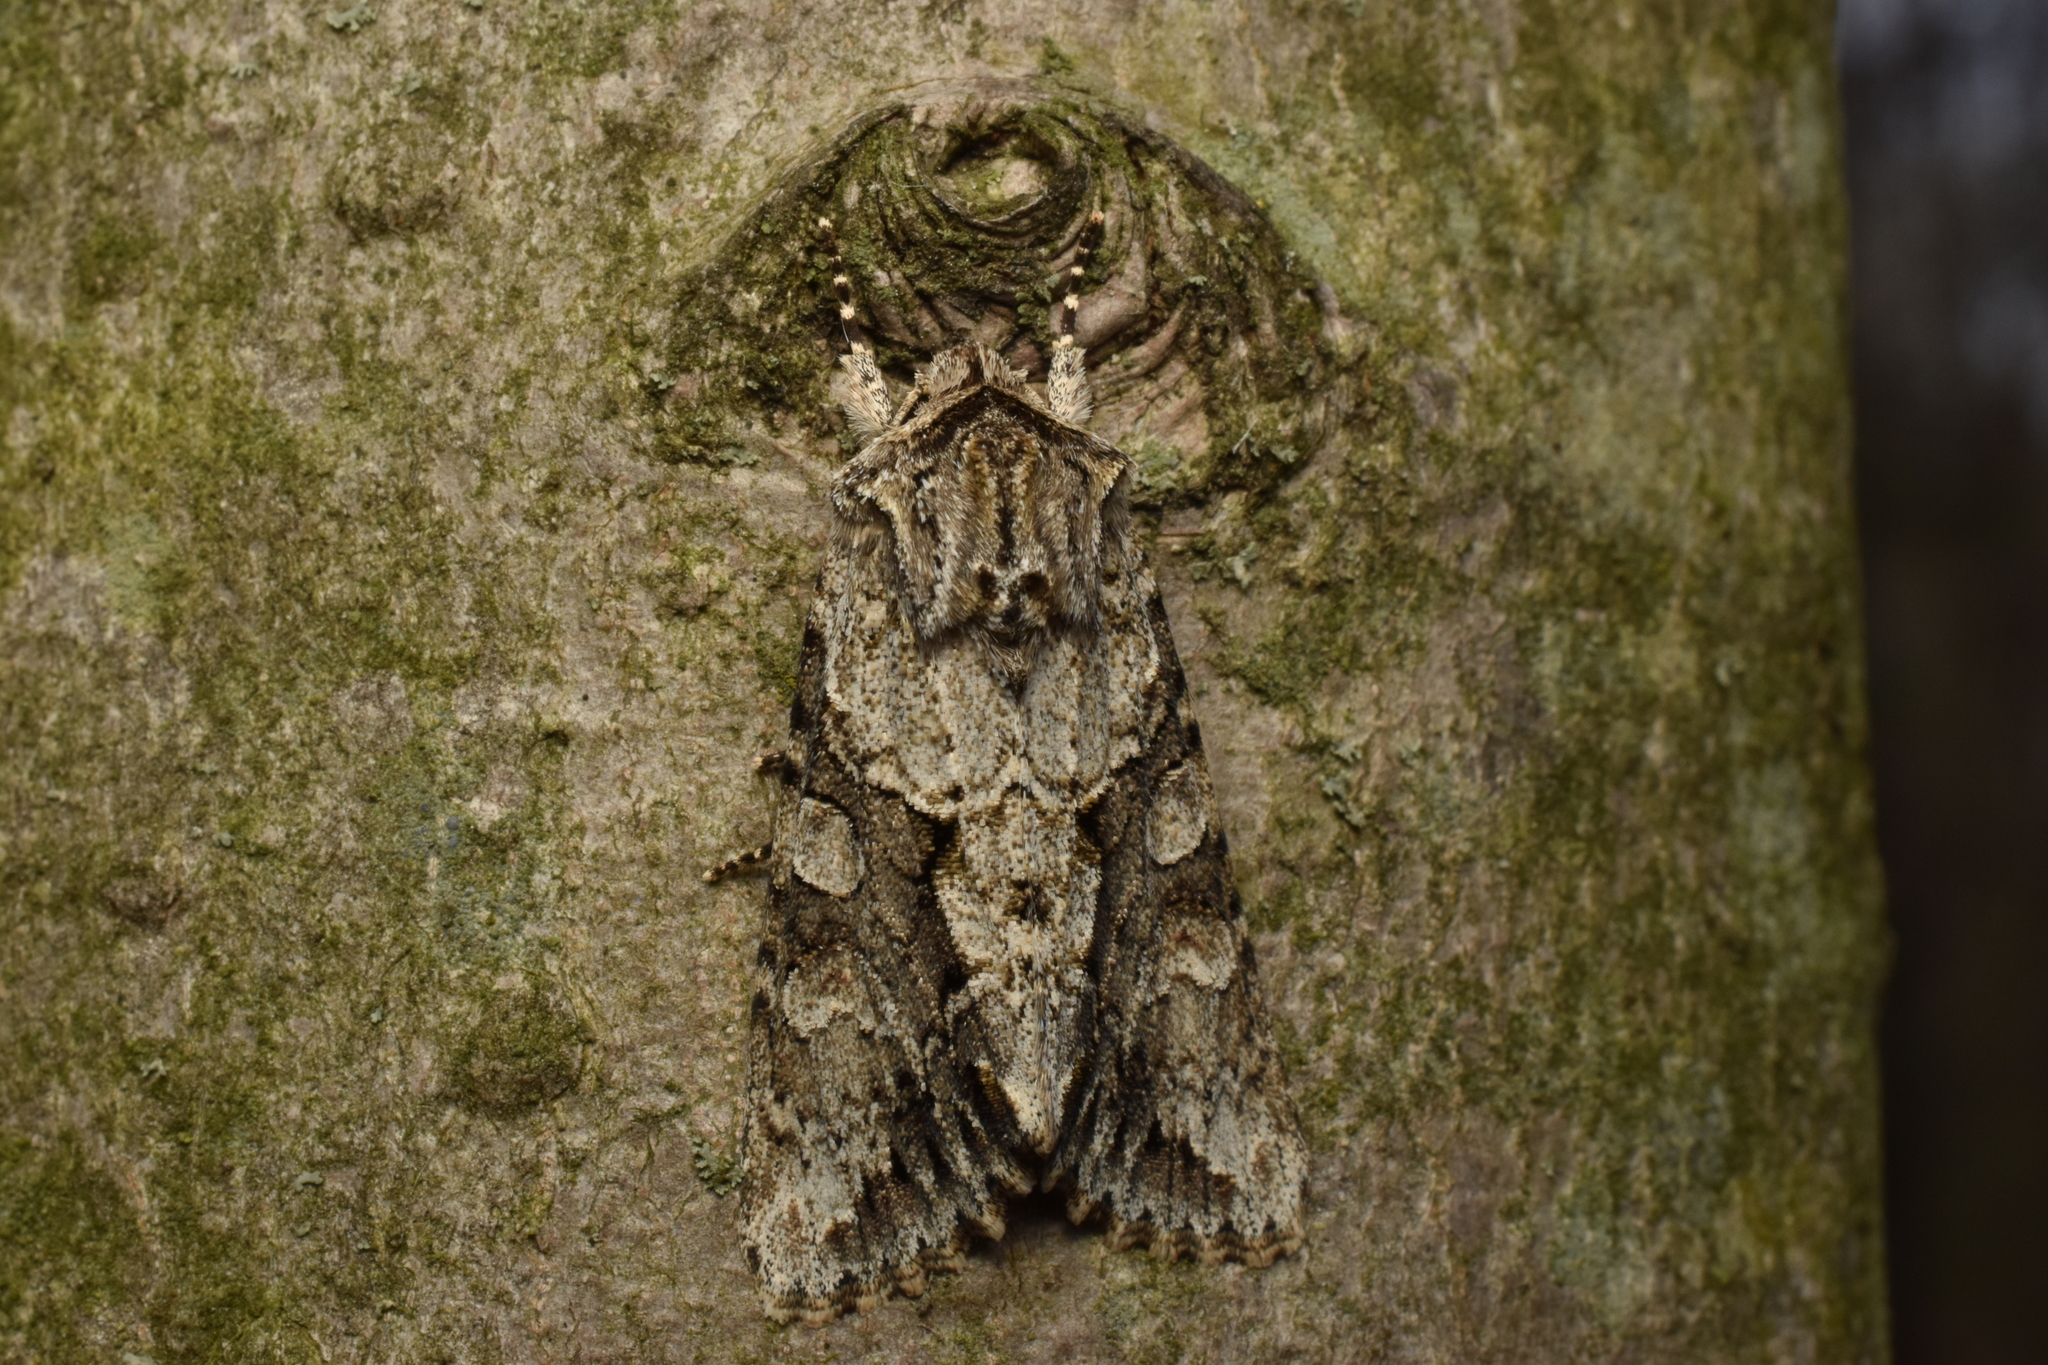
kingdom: Animalia
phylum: Arthropoda
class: Insecta
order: Lepidoptera
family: Noctuidae
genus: Achatia
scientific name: Achatia distincta
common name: Distinct quaker
